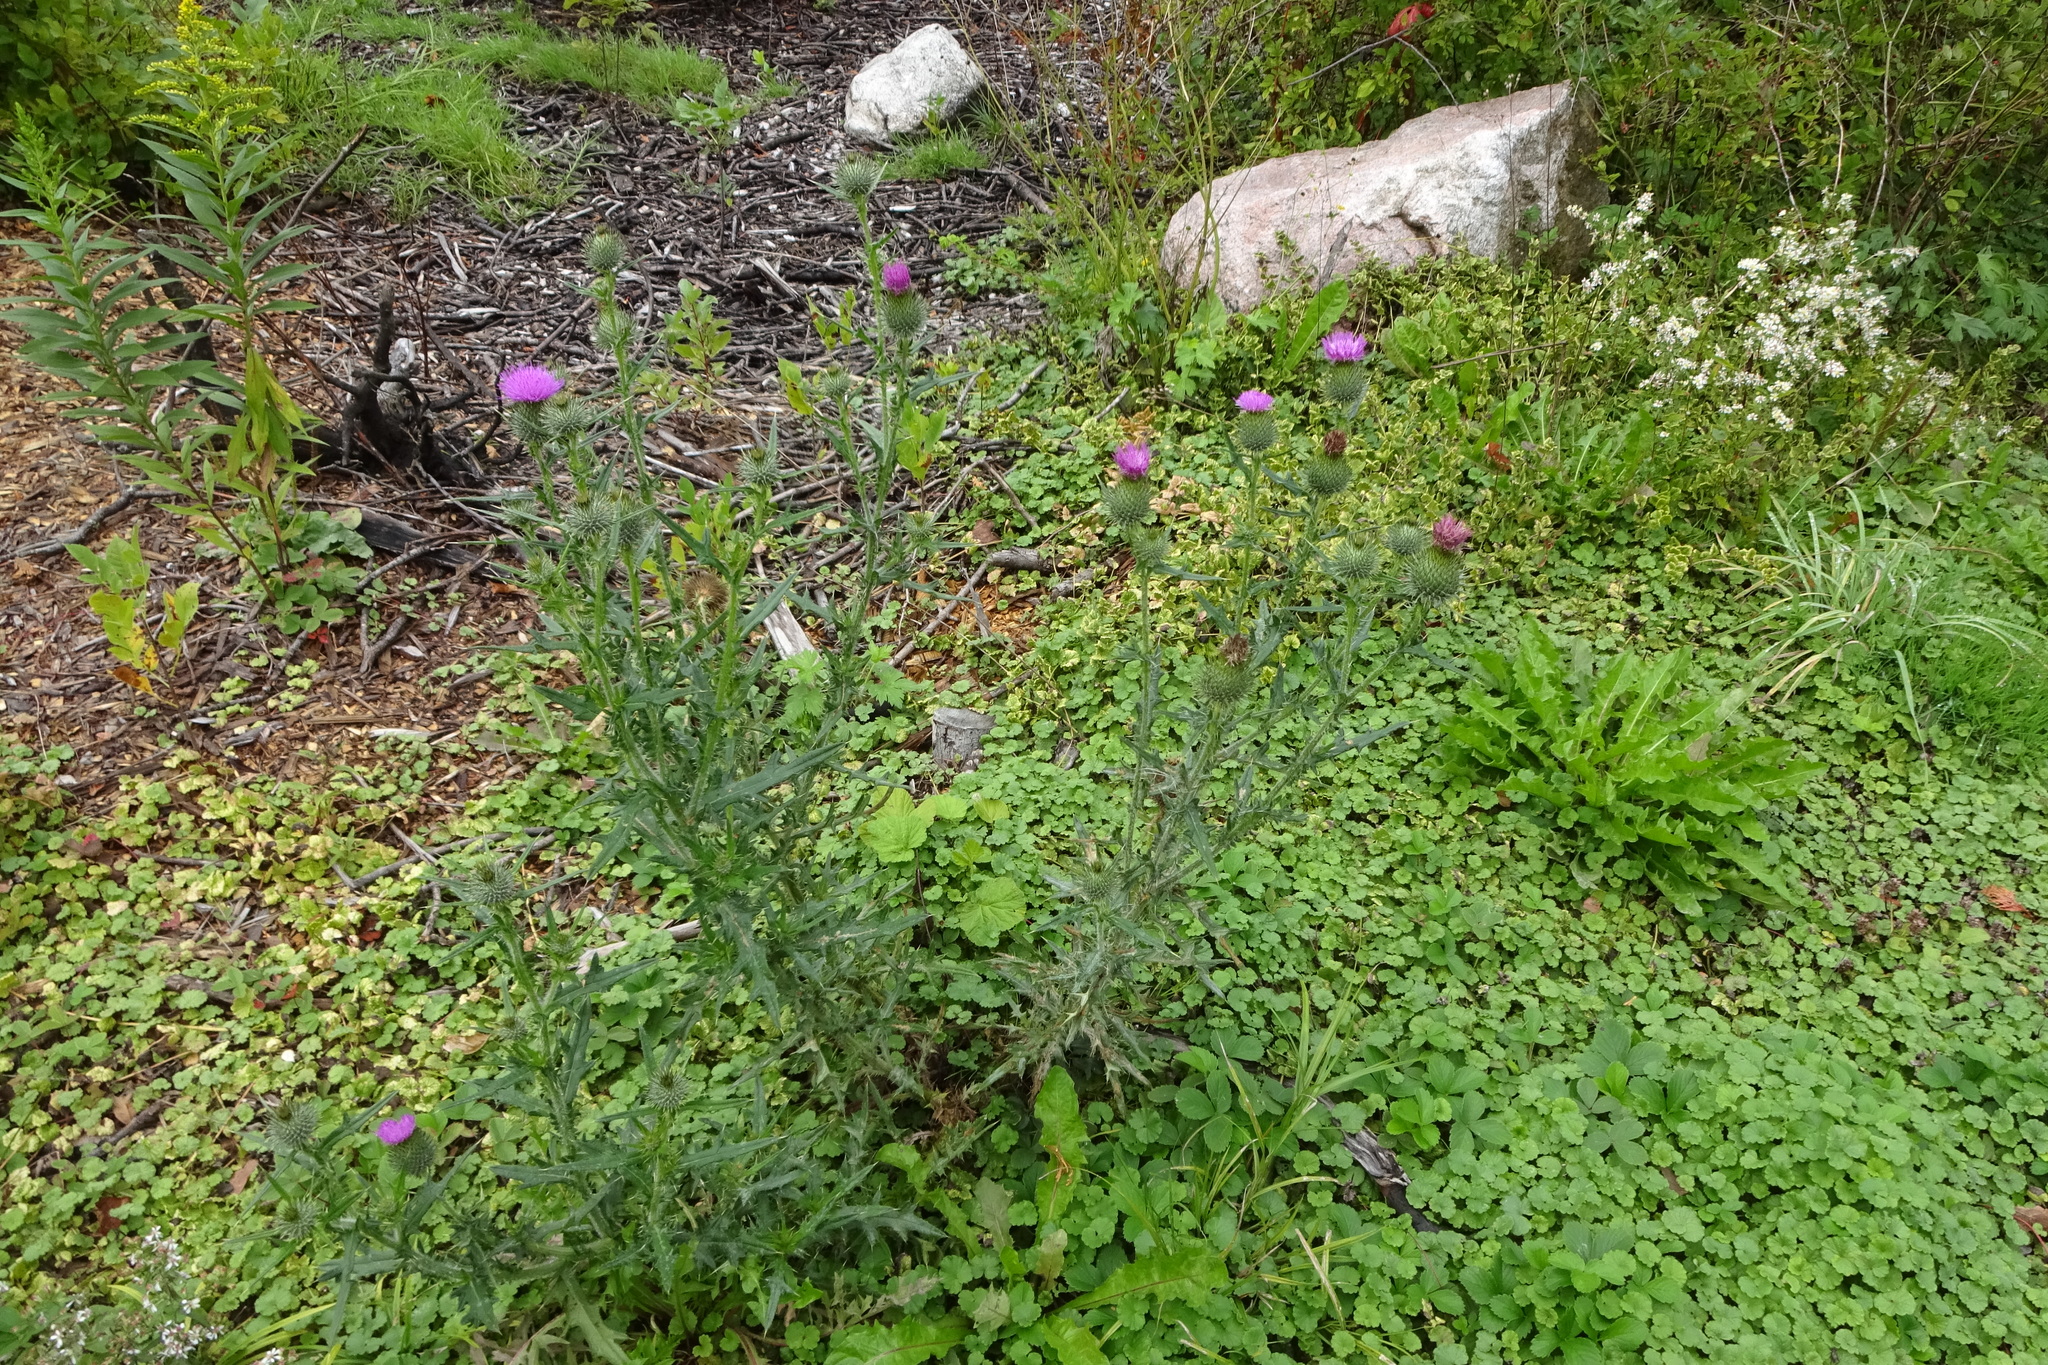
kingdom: Plantae
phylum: Tracheophyta
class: Magnoliopsida
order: Asterales
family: Asteraceae
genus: Cirsium
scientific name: Cirsium vulgare
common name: Bull thistle
